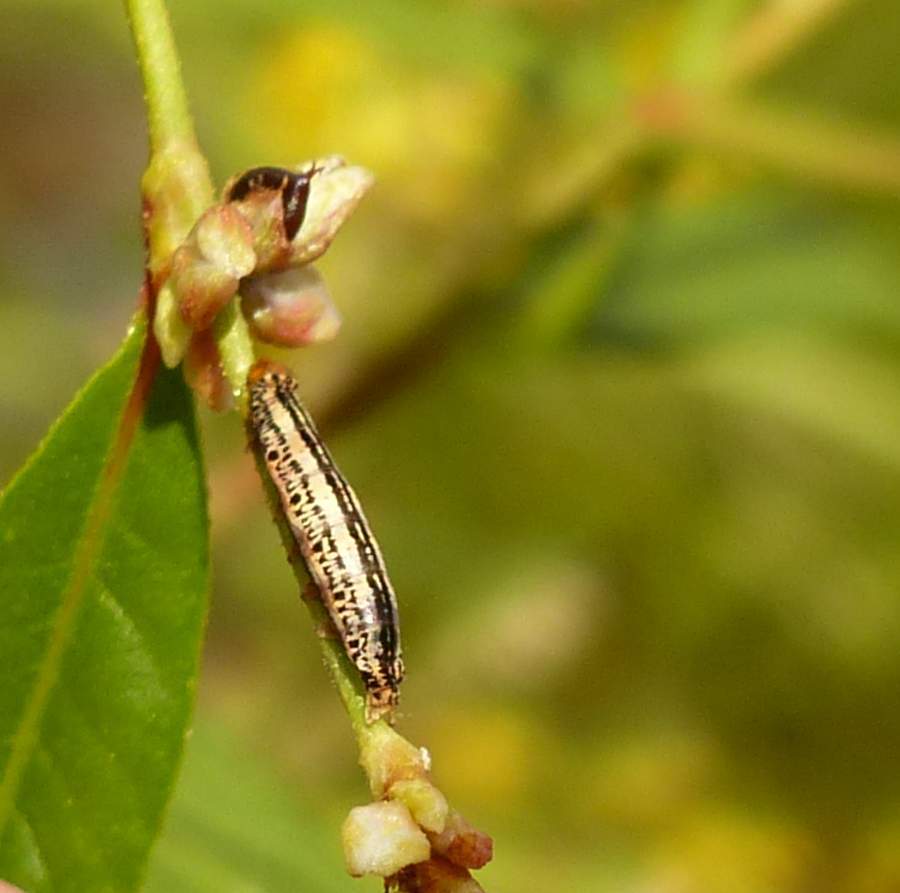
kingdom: Animalia
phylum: Arthropoda
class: Insecta
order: Lepidoptera
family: Noctuidae
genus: Melanchra
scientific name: Melanchra picta
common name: Zebra caterpillar
